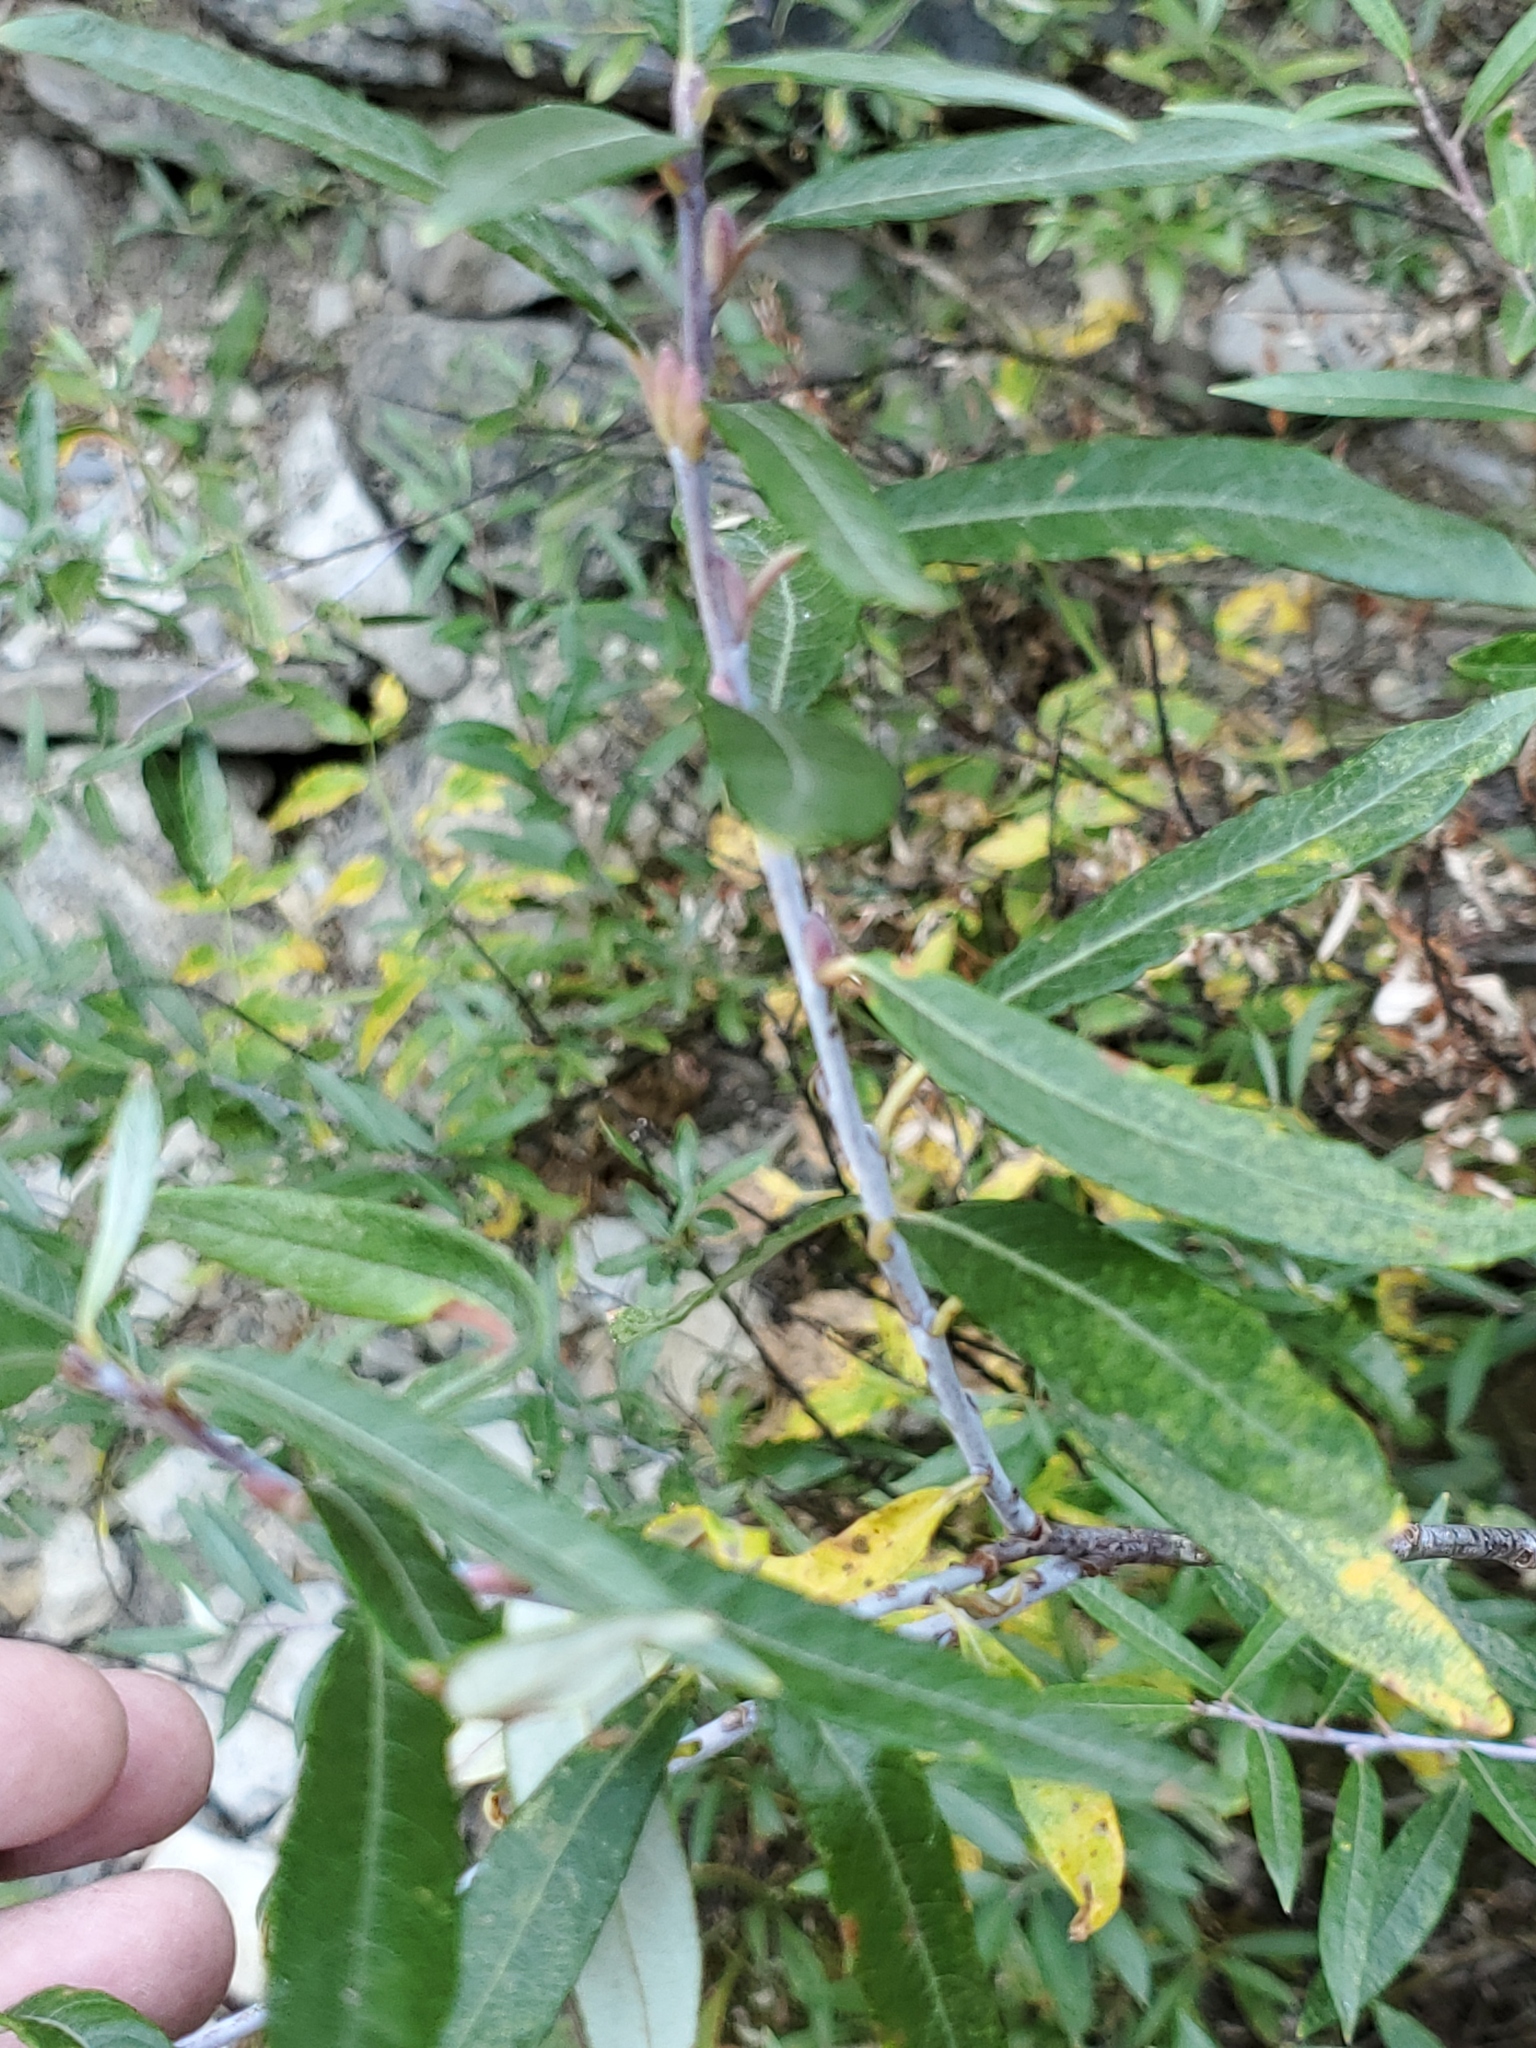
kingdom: Plantae
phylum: Tracheophyta
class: Magnoliopsida
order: Malpighiales
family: Salicaceae
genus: Salix
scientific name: Salix drummondiana
